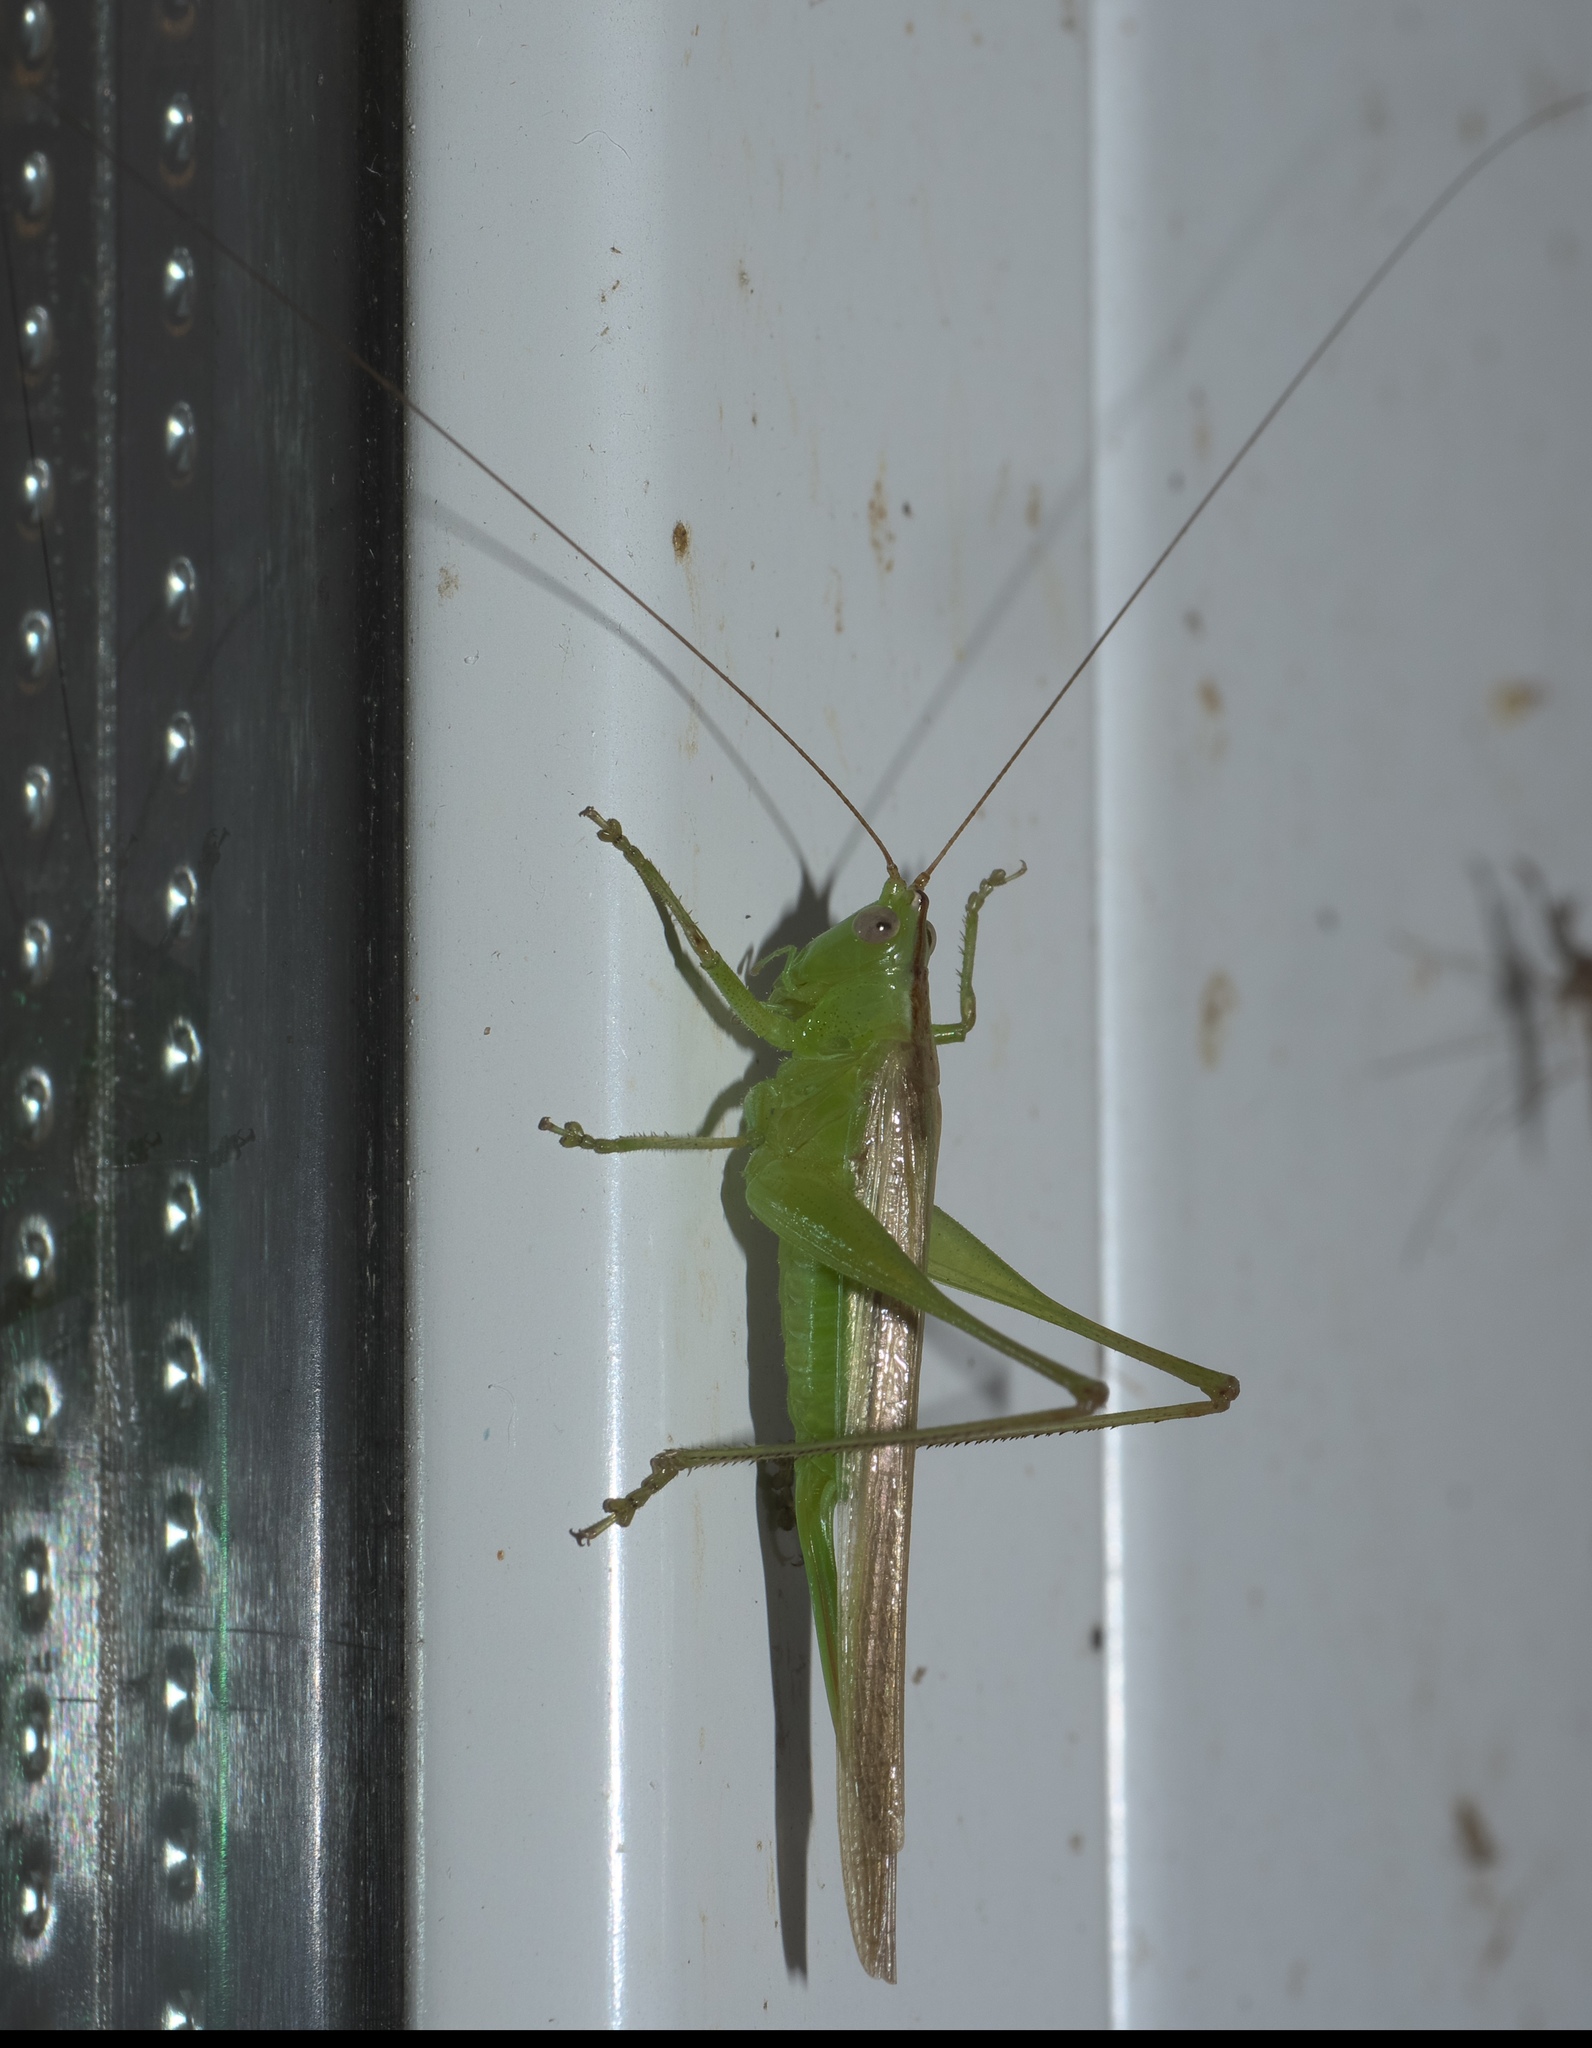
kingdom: Animalia
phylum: Arthropoda
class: Insecta
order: Orthoptera
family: Tettigoniidae
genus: Conocephalus
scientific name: Conocephalus fasciatus
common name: Slender meadow katydid
